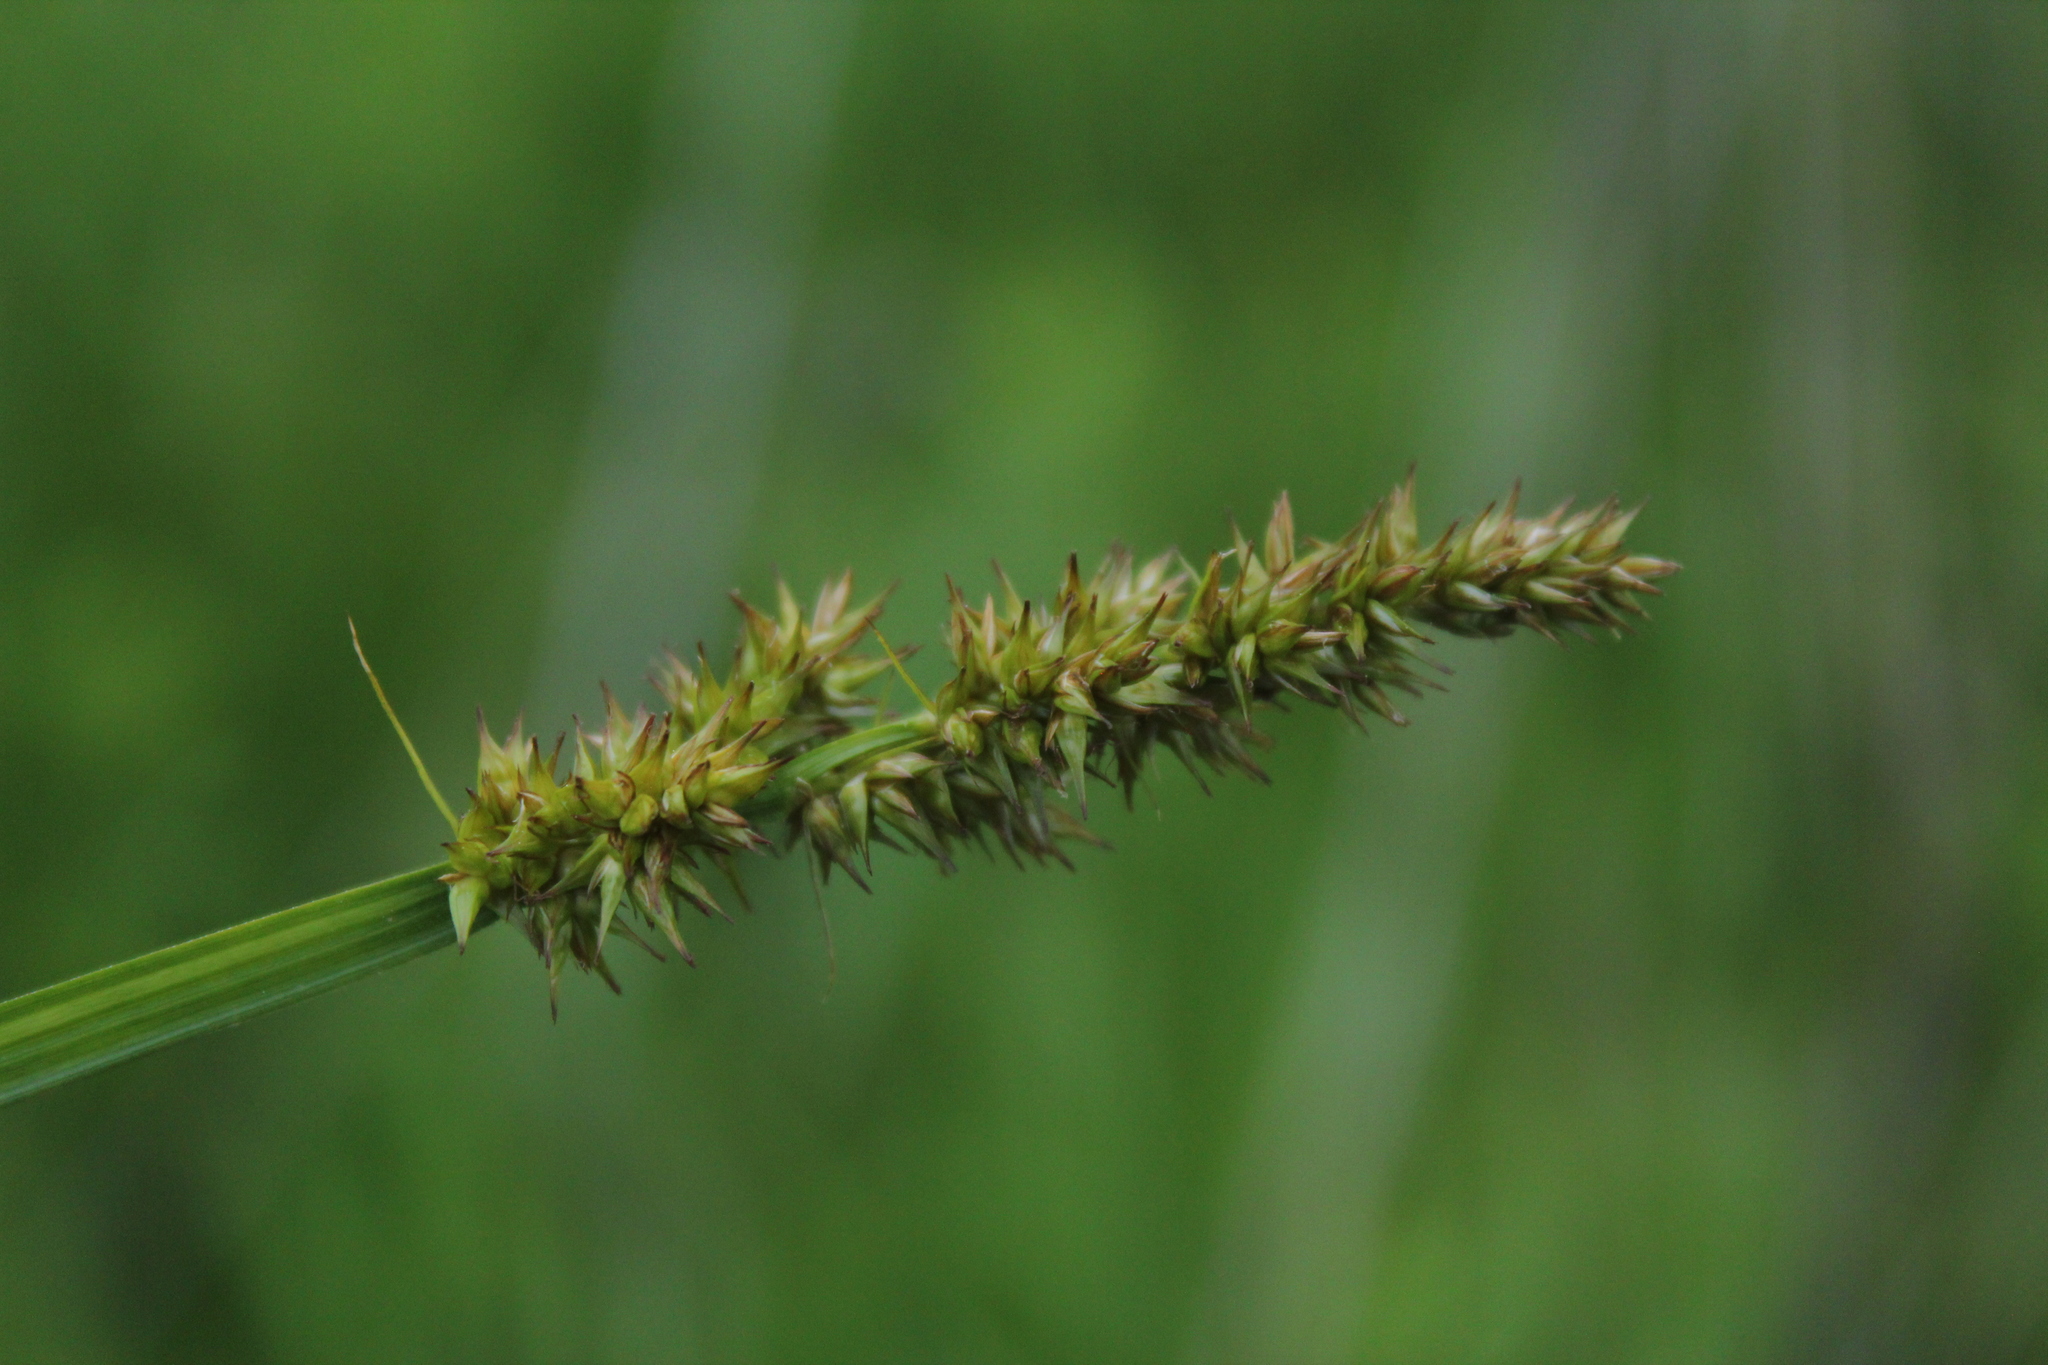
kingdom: Plantae
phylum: Tracheophyta
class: Liliopsida
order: Poales
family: Cyperaceae
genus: Carex
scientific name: Carex stipata
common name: Awl-fruited sedge
